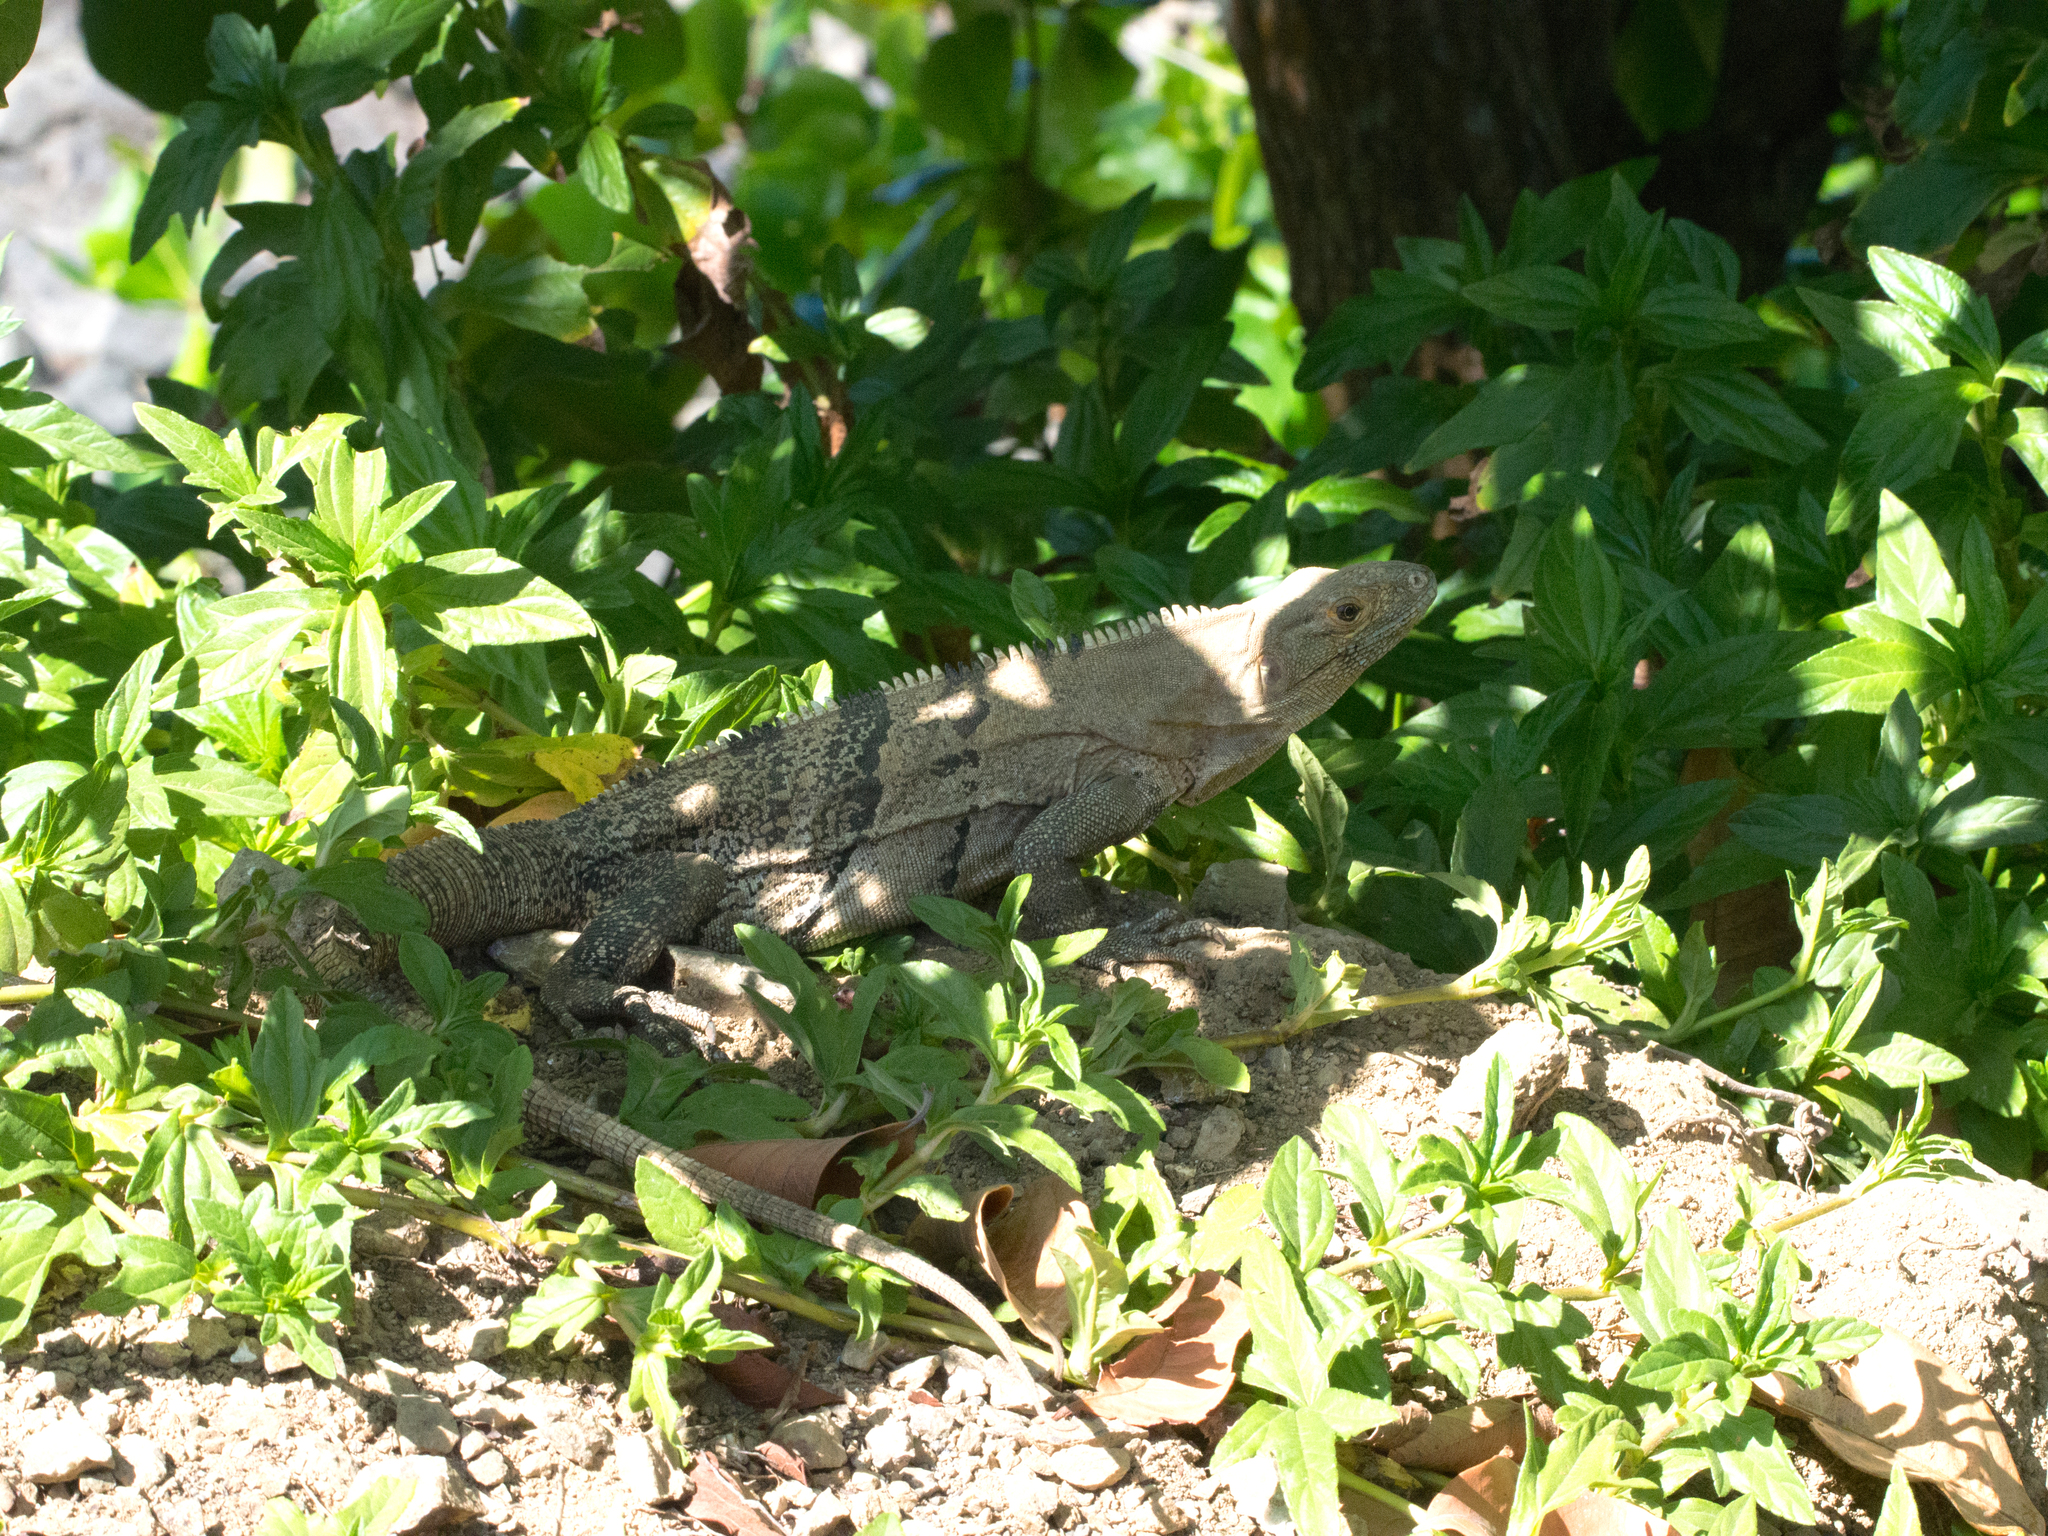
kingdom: Animalia
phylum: Chordata
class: Squamata
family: Iguanidae
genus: Ctenosaura
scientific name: Ctenosaura similis
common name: Black spiny-tailed iguana
